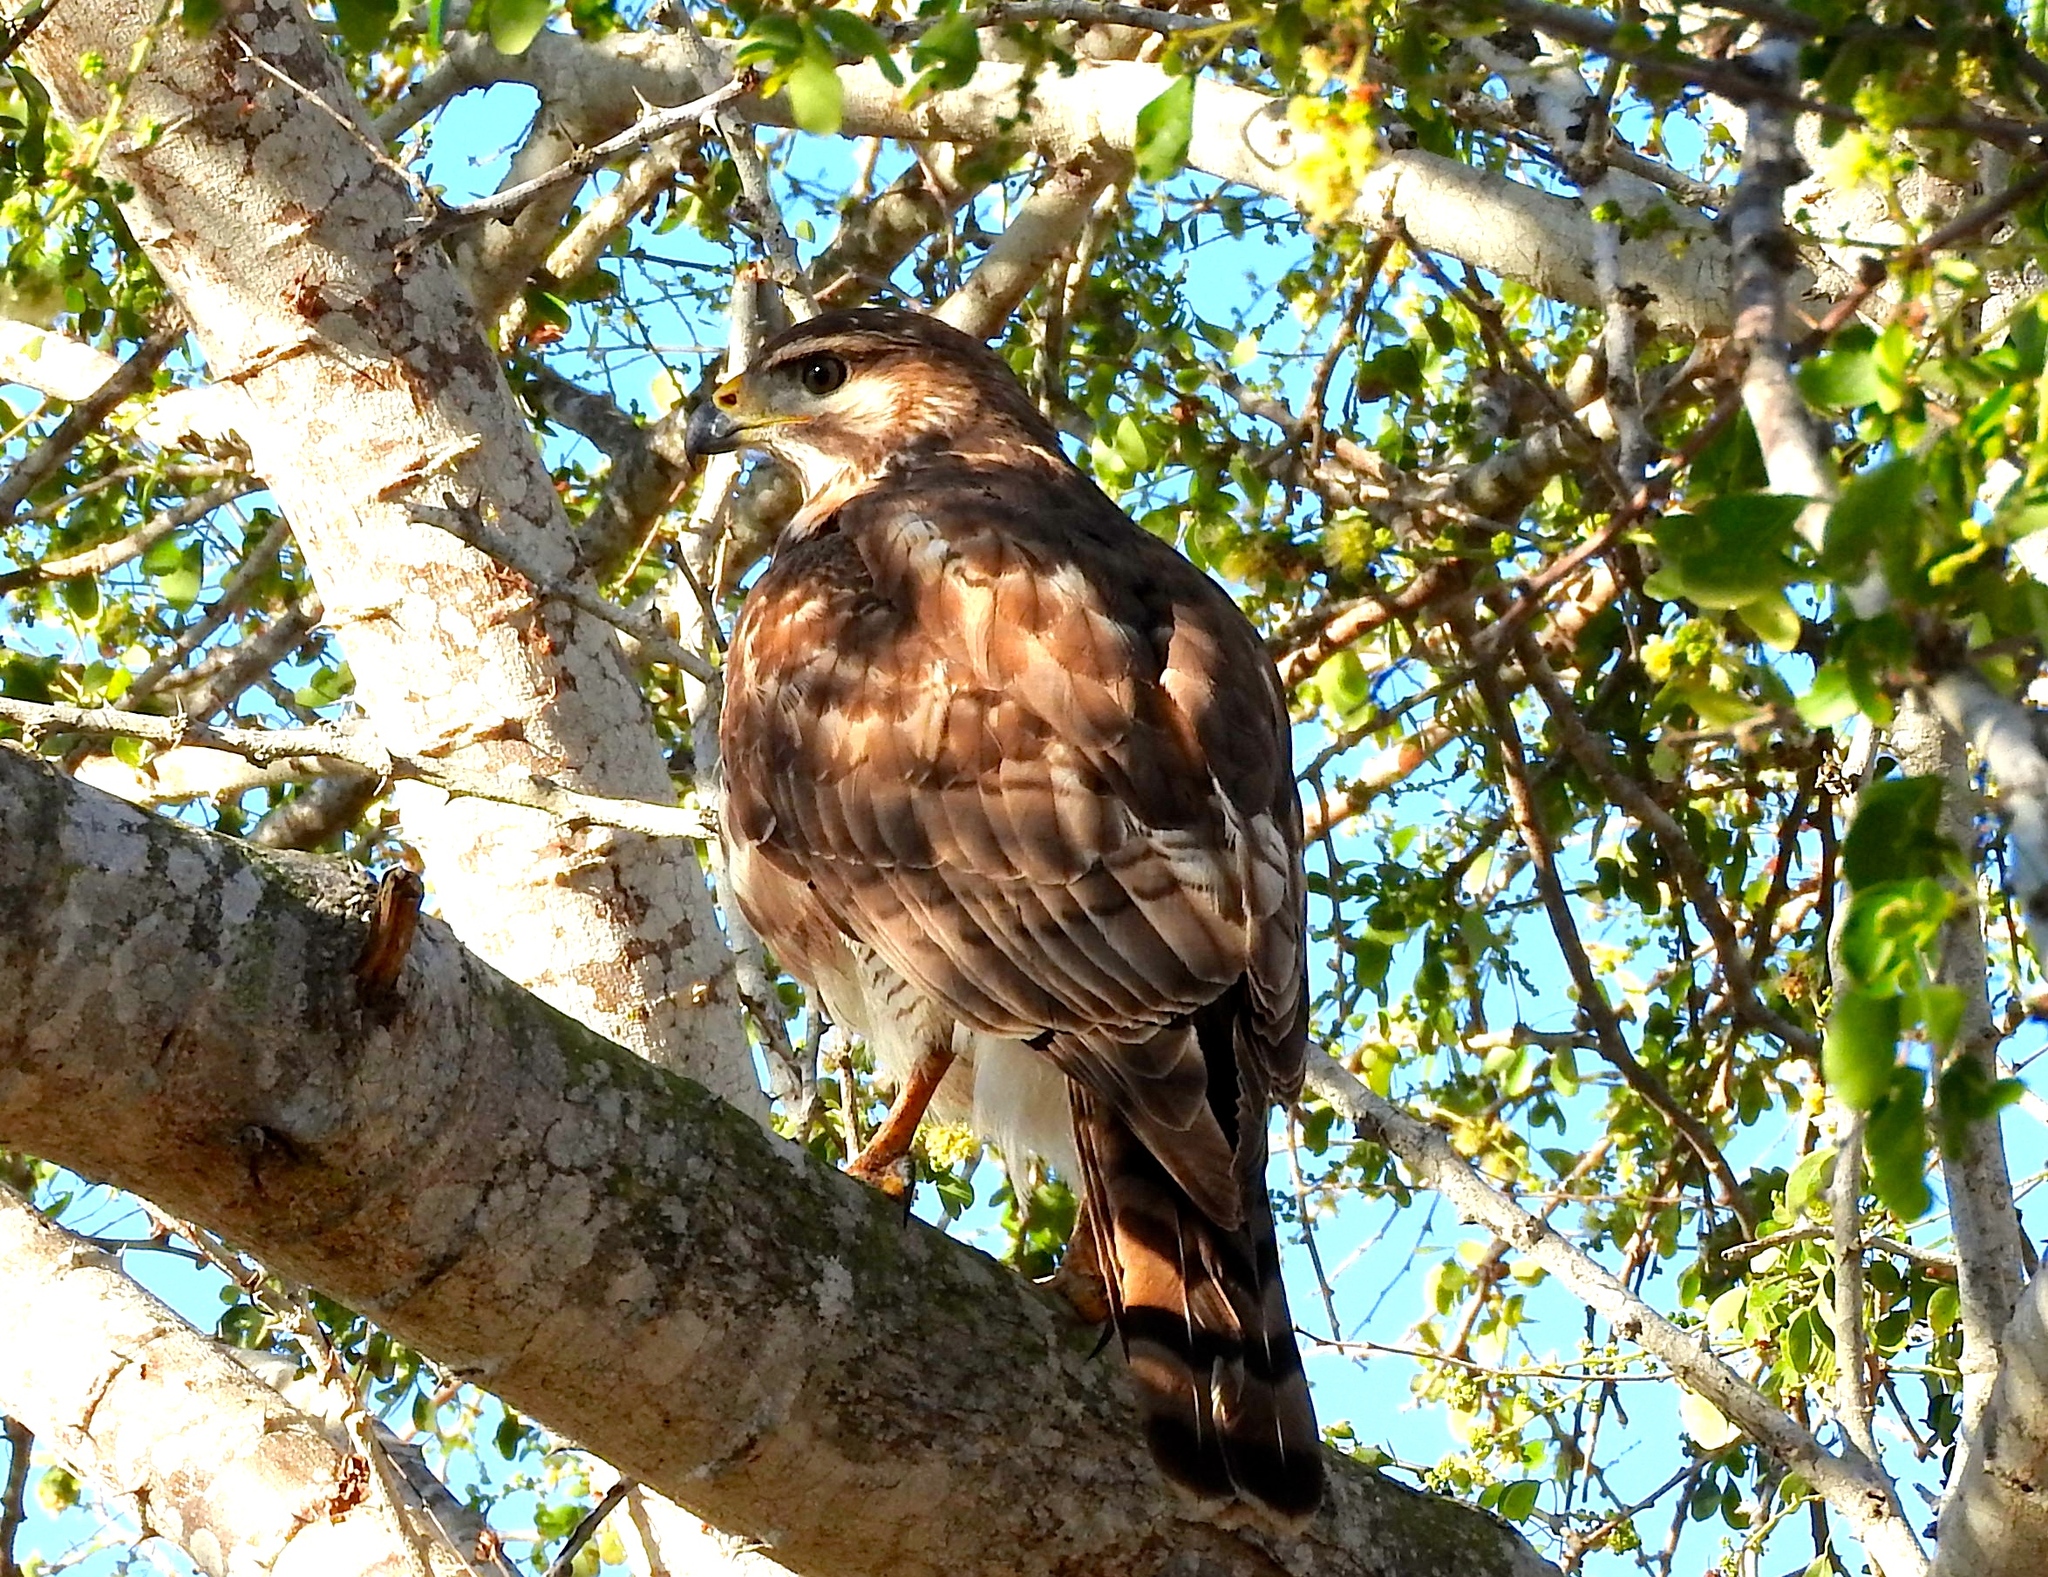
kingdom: Animalia
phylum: Chordata
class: Aves
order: Accipitriformes
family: Accipitridae
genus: Buteo
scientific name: Buteo nitidus
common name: Grey-lined hawk
